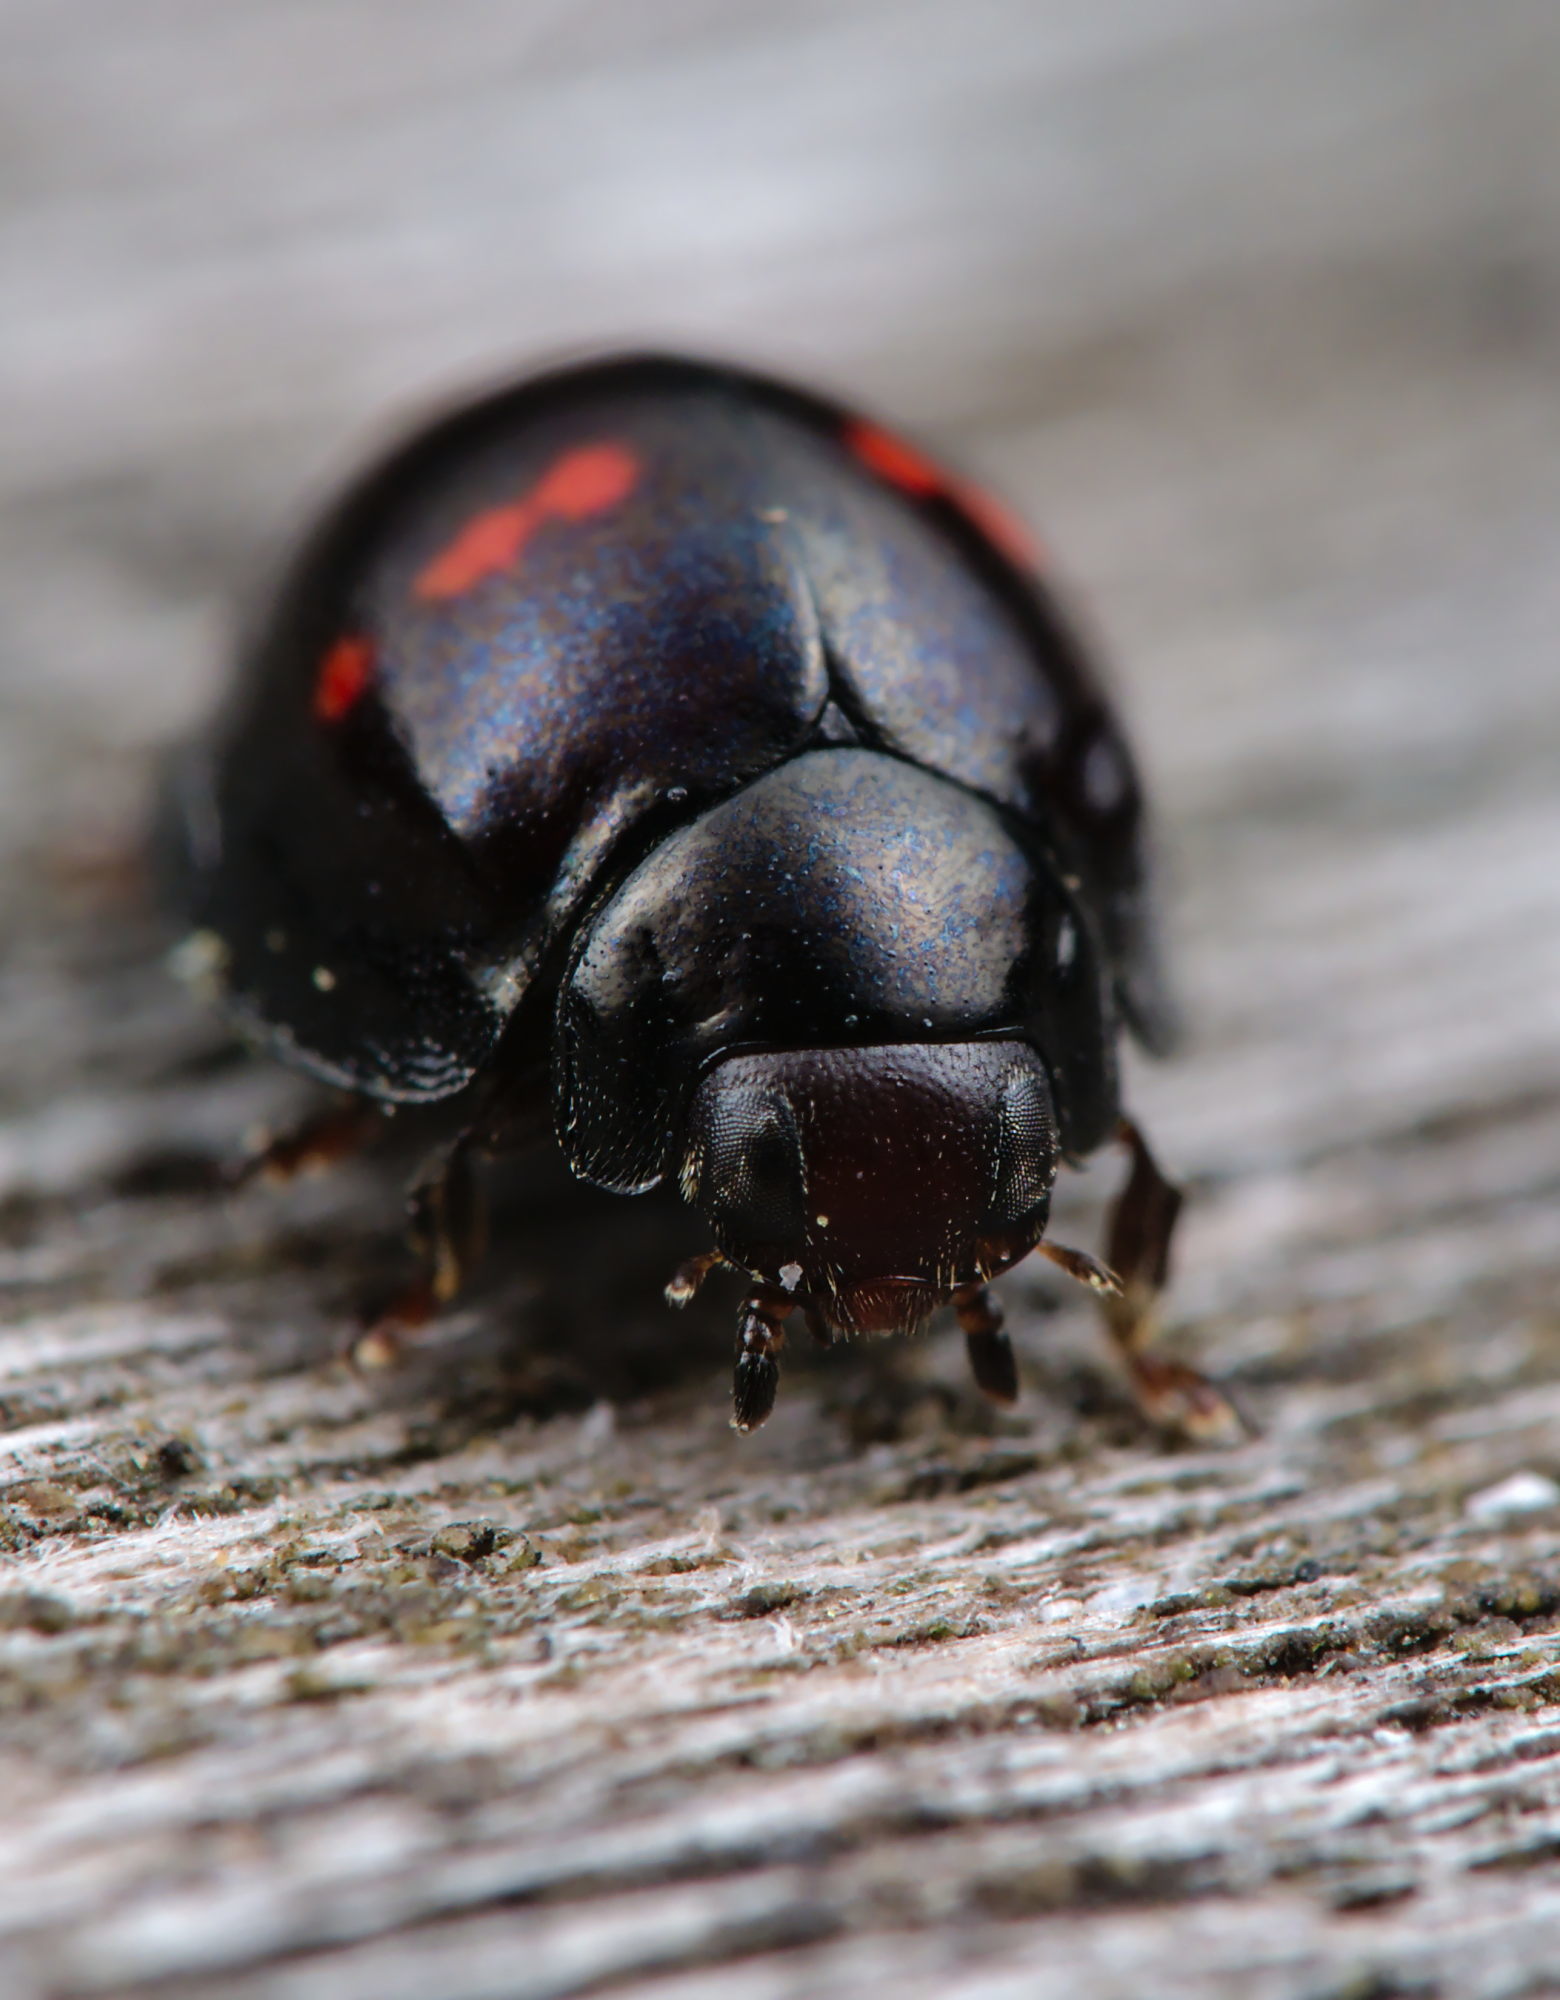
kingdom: Animalia
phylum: Arthropoda
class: Insecta
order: Coleoptera
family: Coccinellidae
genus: Chilocorus
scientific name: Chilocorus bipustulatus
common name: Heather ladybird
